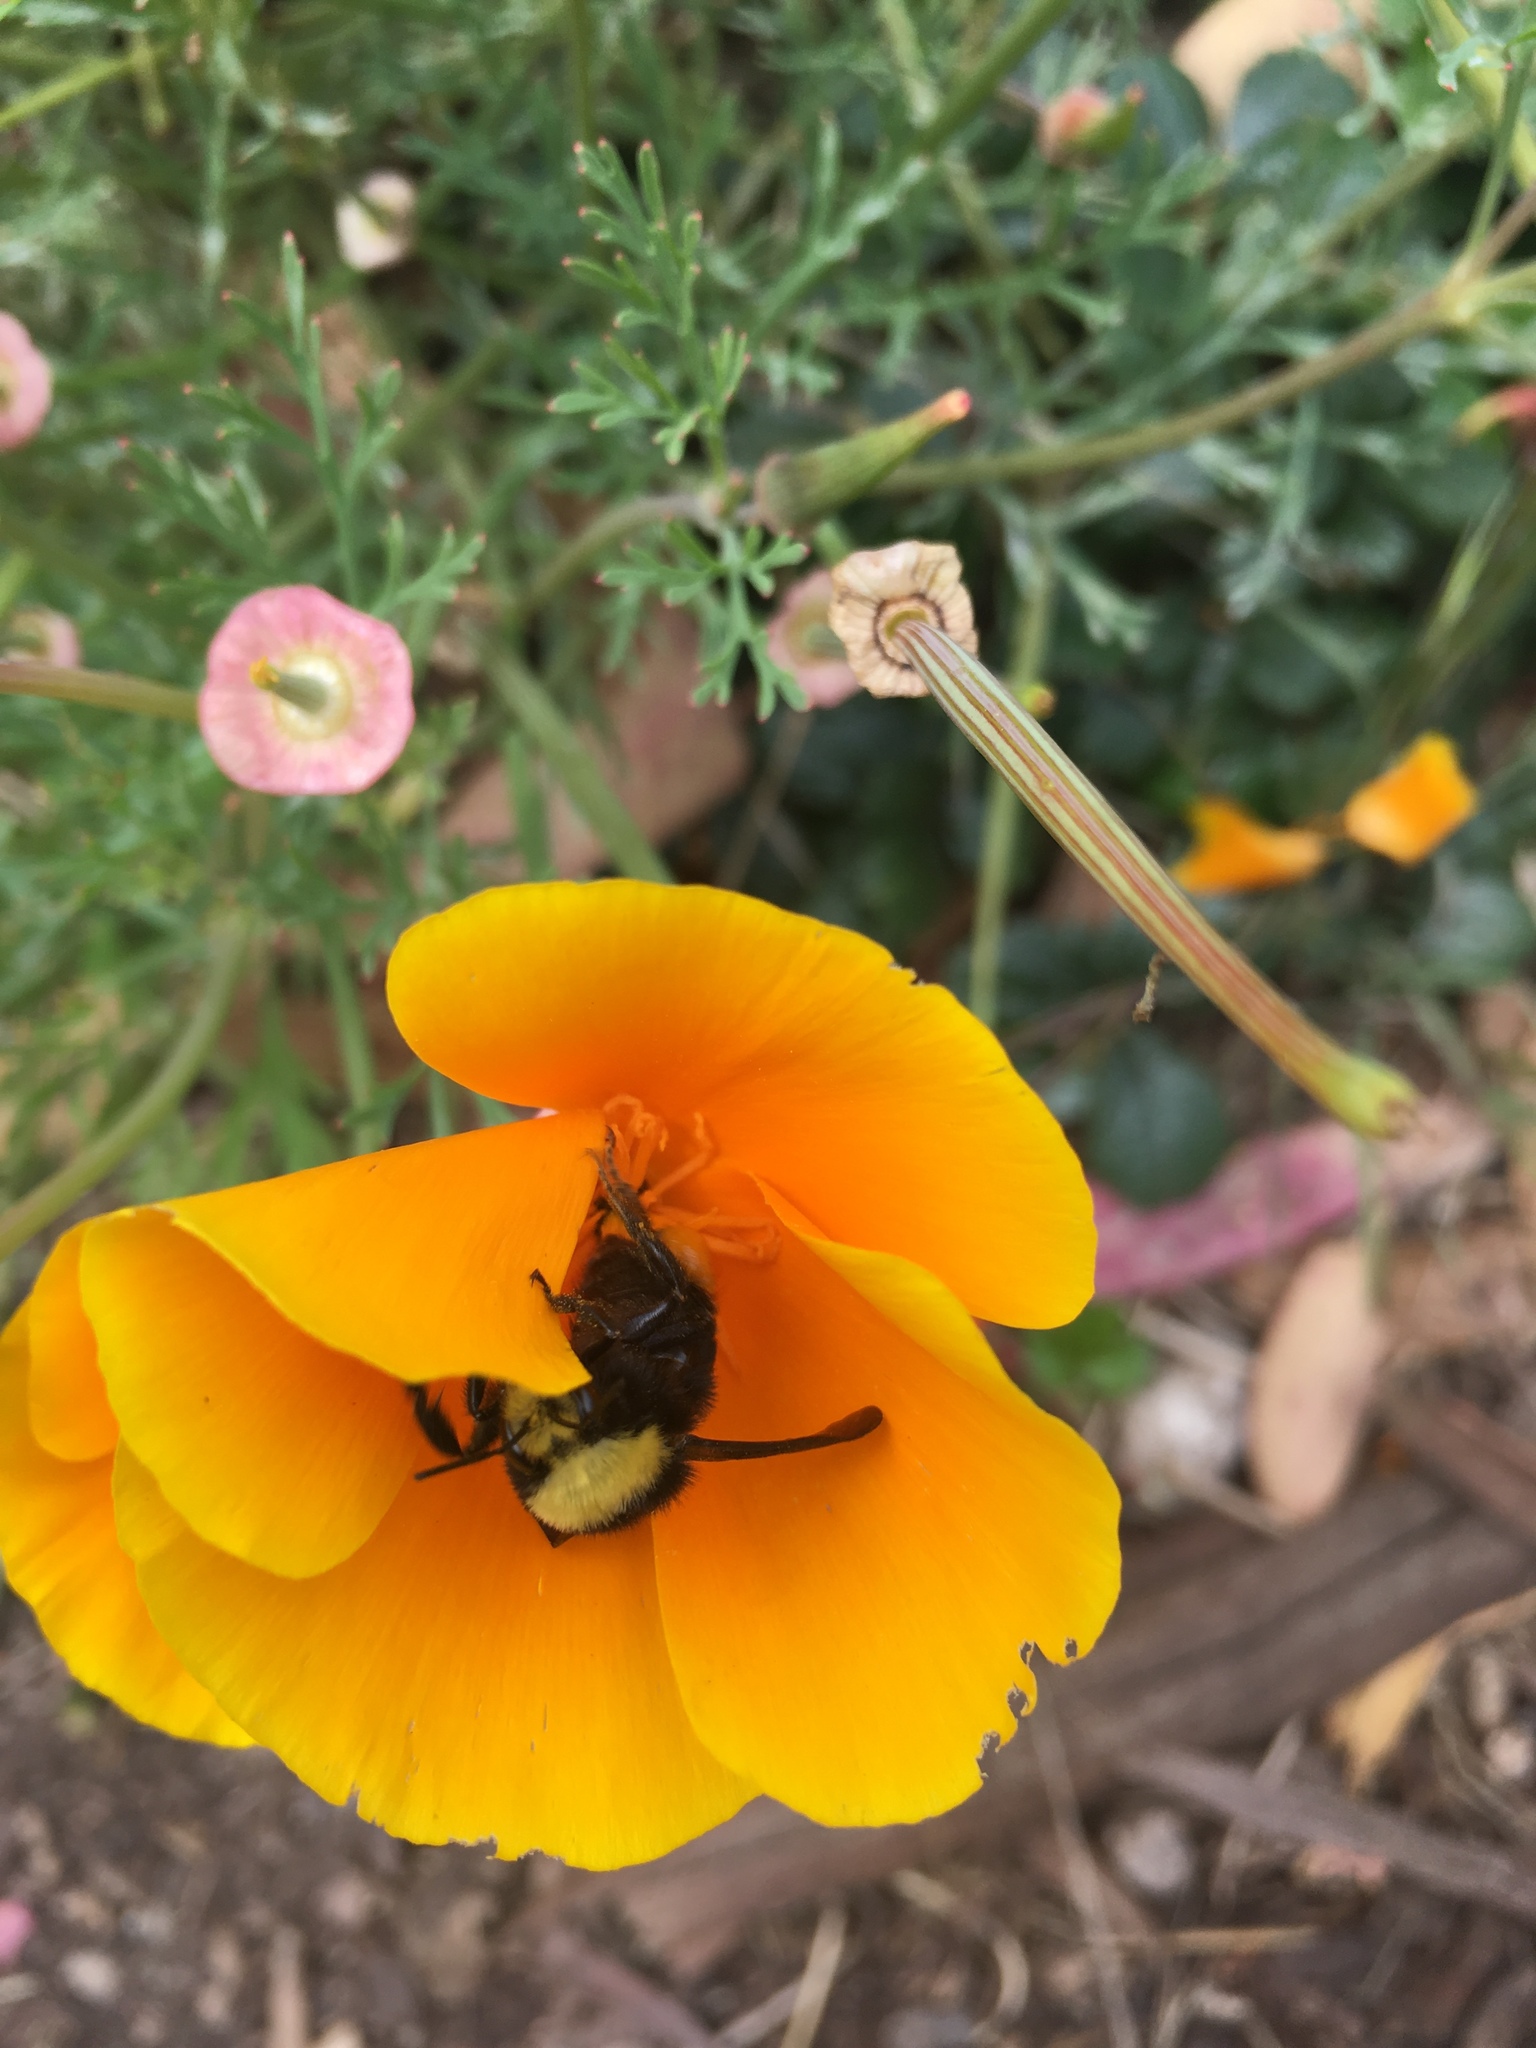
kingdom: Animalia
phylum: Arthropoda
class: Insecta
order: Hymenoptera
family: Apidae
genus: Bombus
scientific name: Bombus vosnesenskii
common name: Vosnesensky bumble bee
